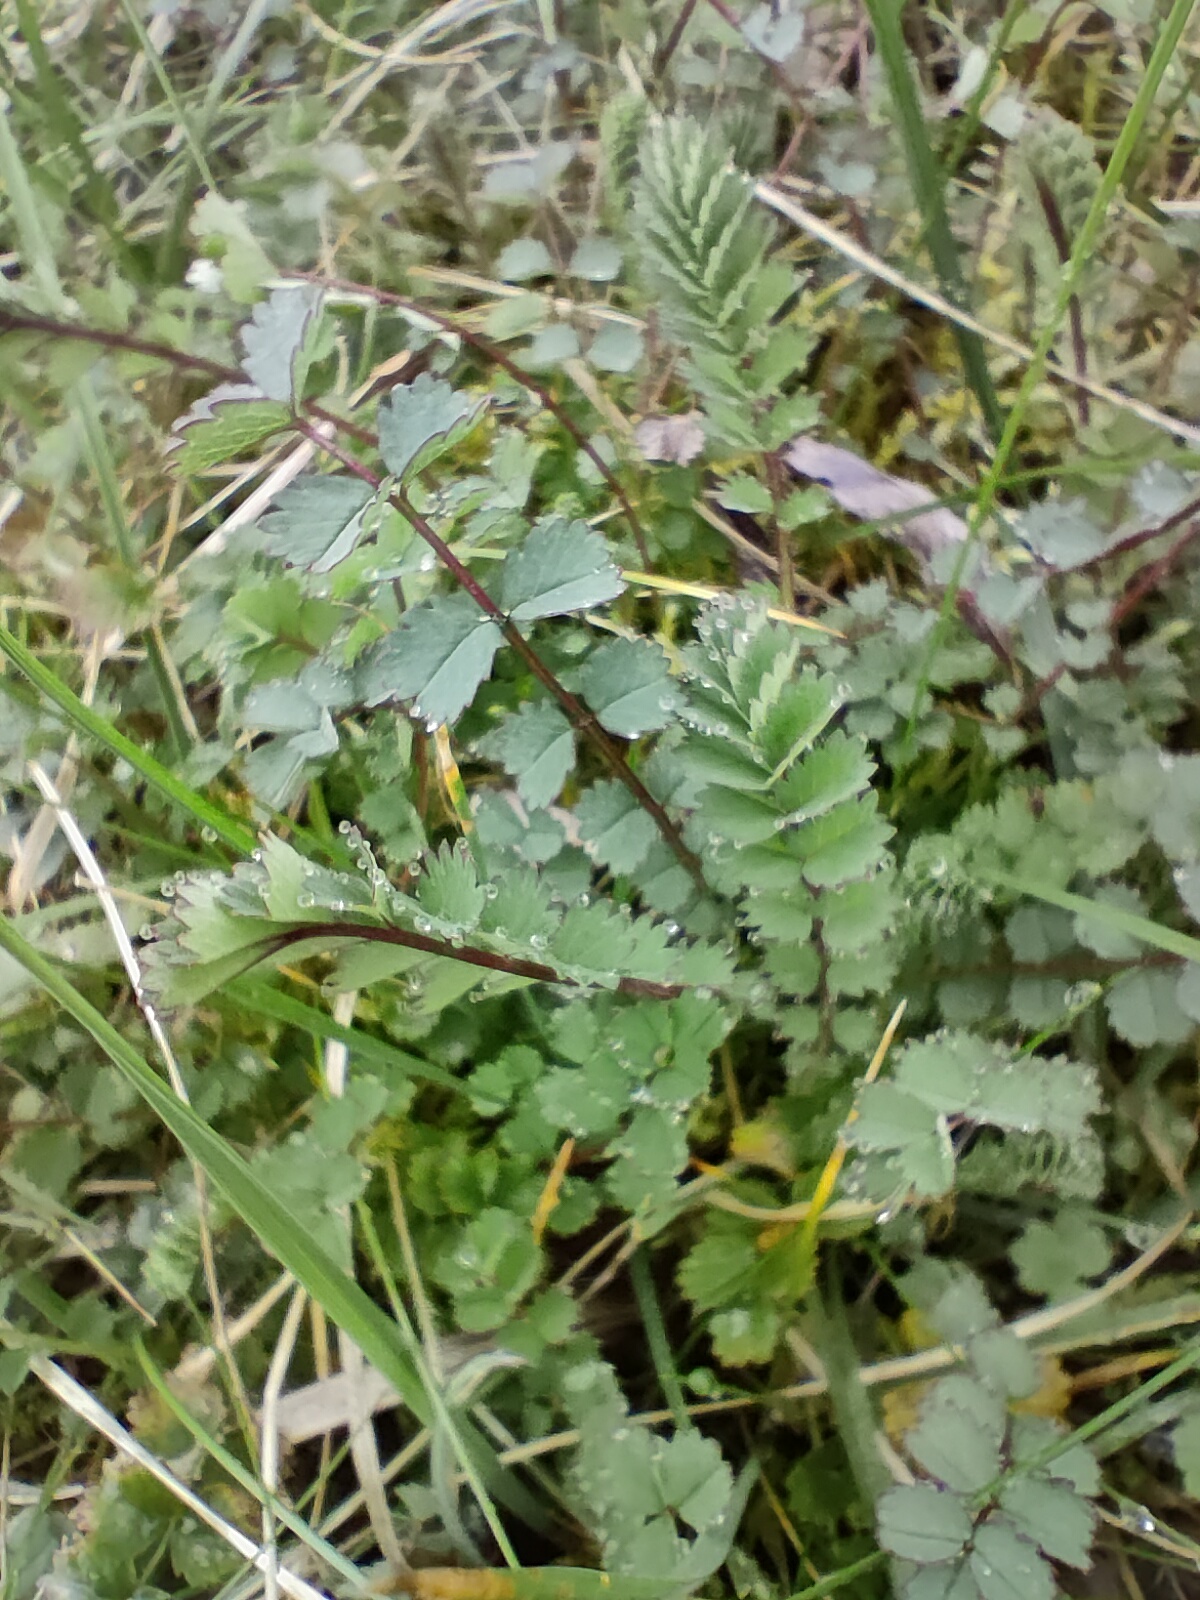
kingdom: Plantae
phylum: Tracheophyta
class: Magnoliopsida
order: Rosales
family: Rosaceae
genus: Poterium
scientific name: Poterium sanguisorba
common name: Salad burnet
